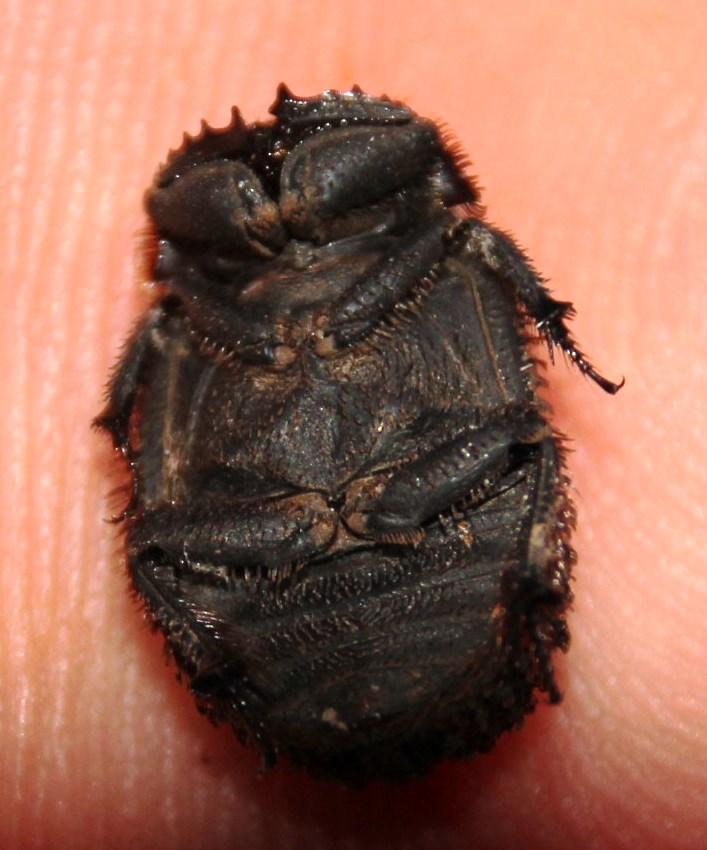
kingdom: Animalia
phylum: Arthropoda
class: Insecta
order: Coleoptera
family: Trogidae
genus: Phoberus
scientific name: Phoberus luridus
